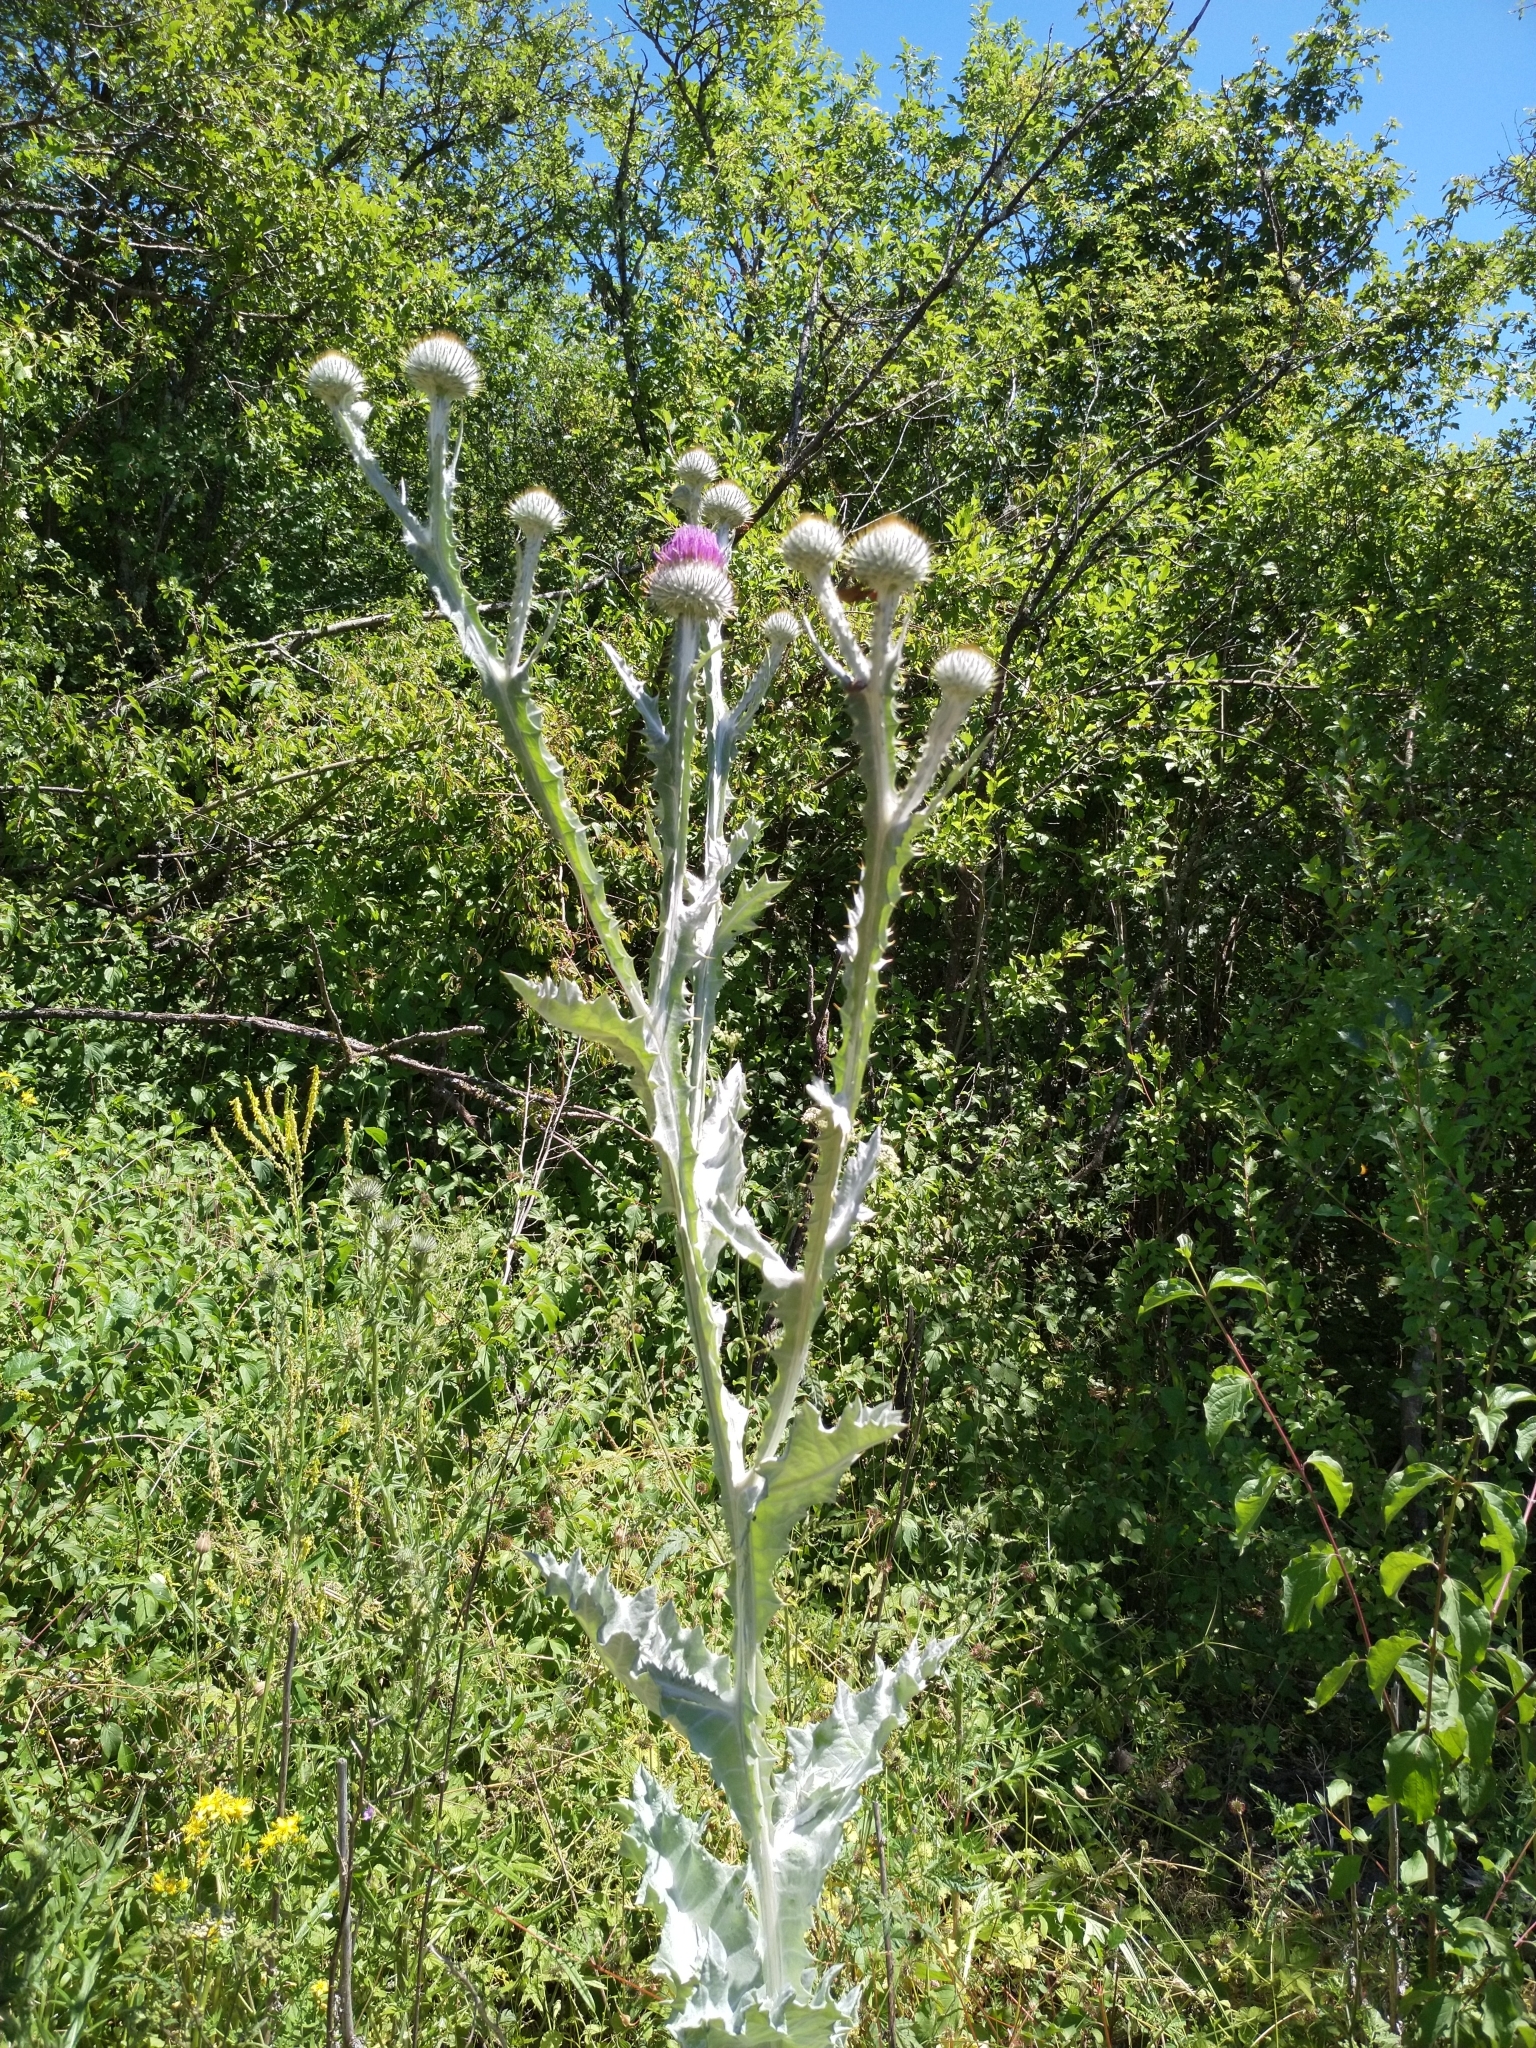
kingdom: Plantae
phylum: Tracheophyta
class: Magnoliopsida
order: Asterales
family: Asteraceae
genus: Onopordum
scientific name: Onopordum acanthium
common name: Scotch thistle
